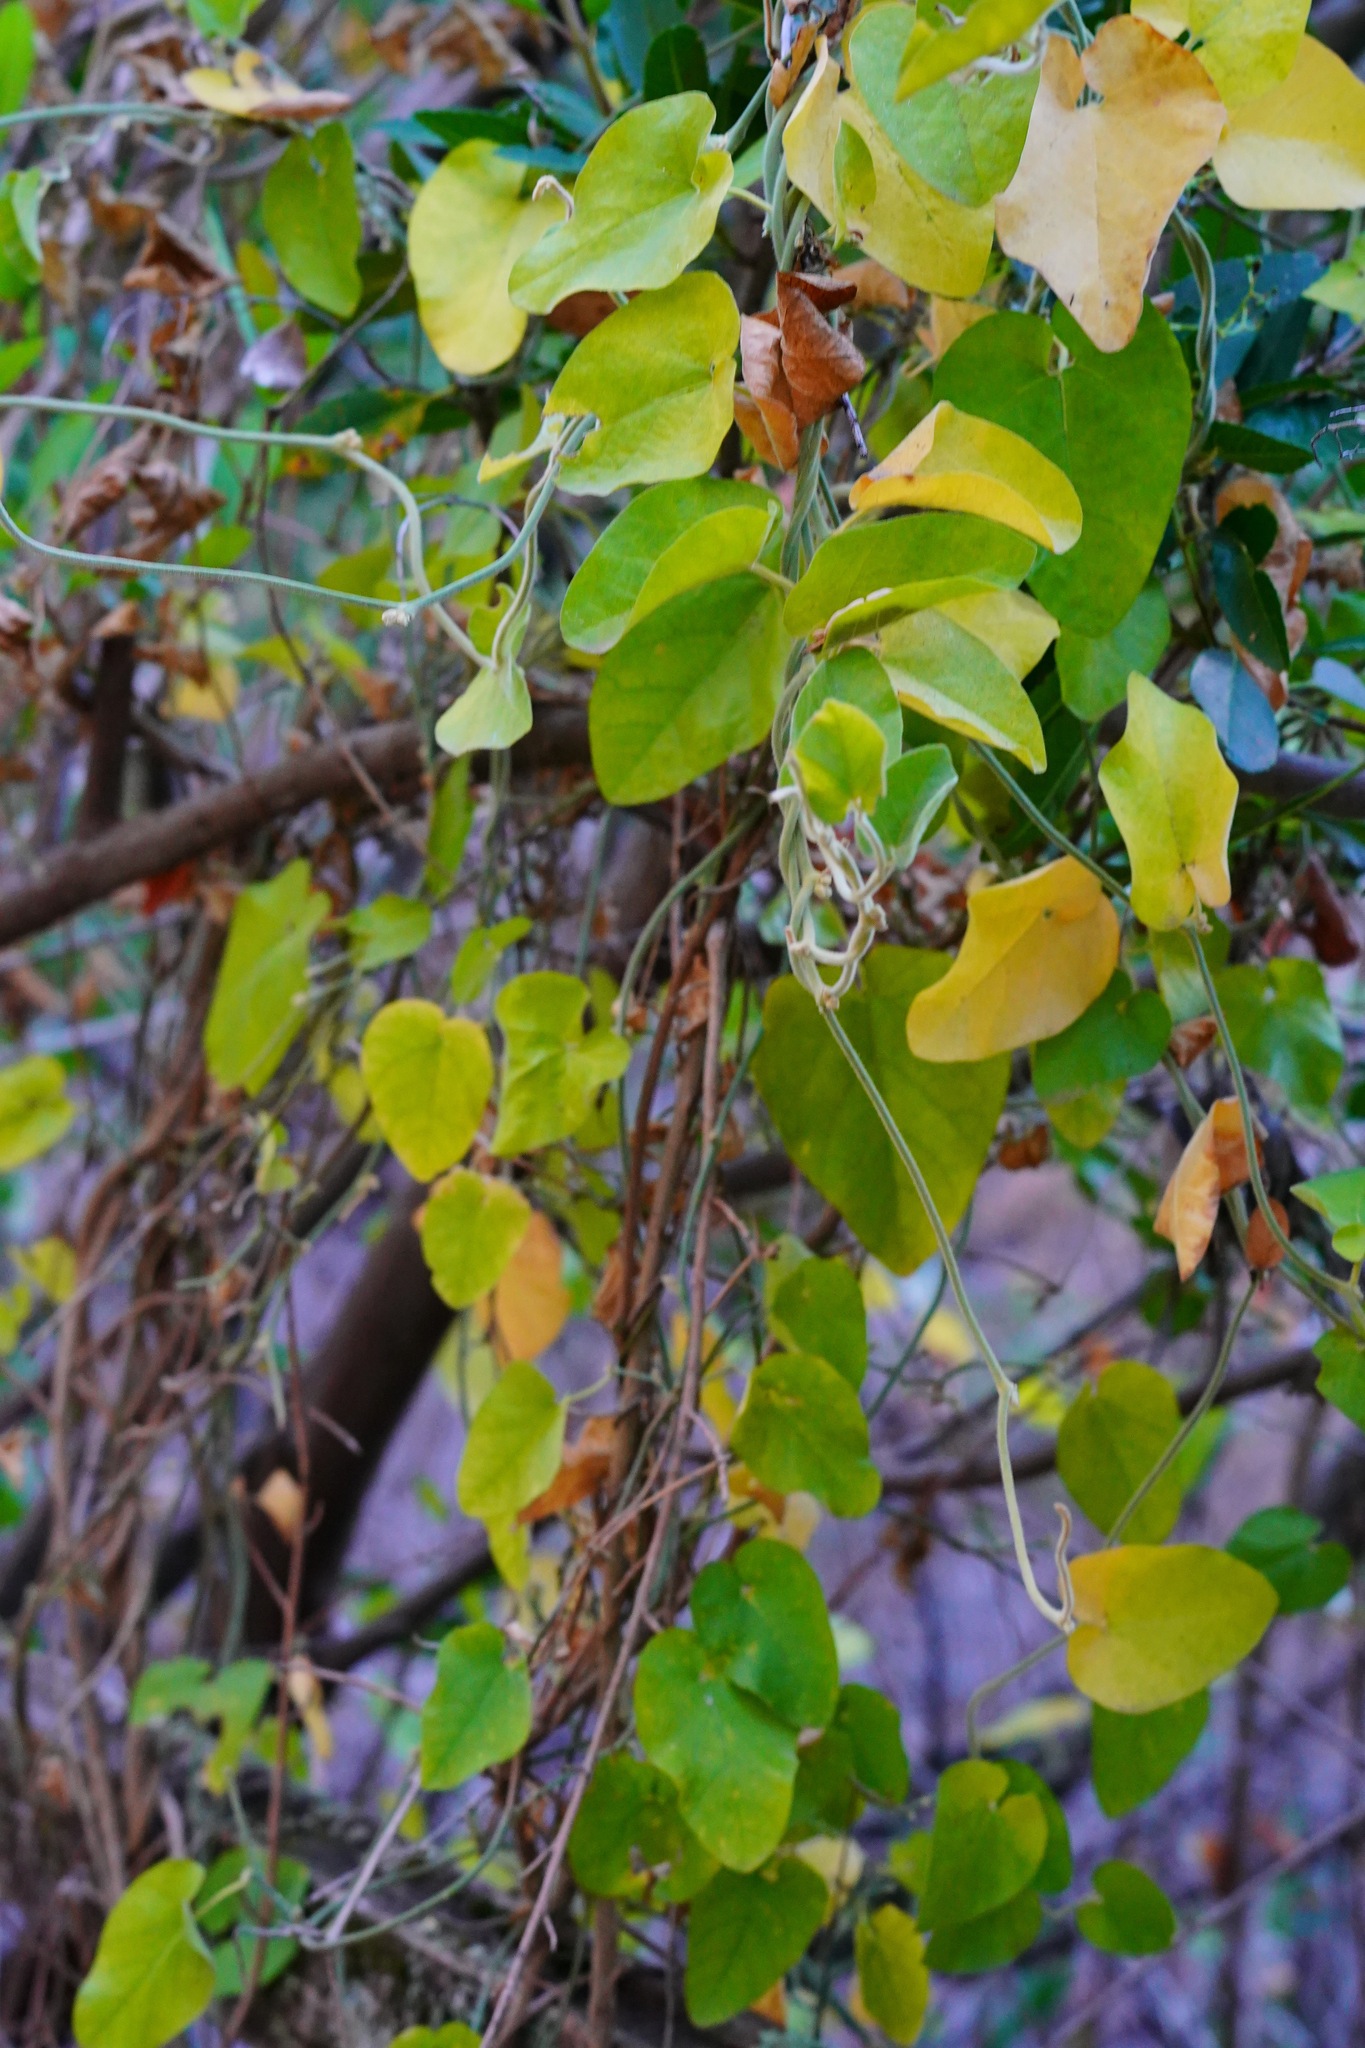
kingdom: Plantae
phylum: Tracheophyta
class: Magnoliopsida
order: Piperales
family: Aristolochiaceae
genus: Isotrema
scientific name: Isotrema californicum
